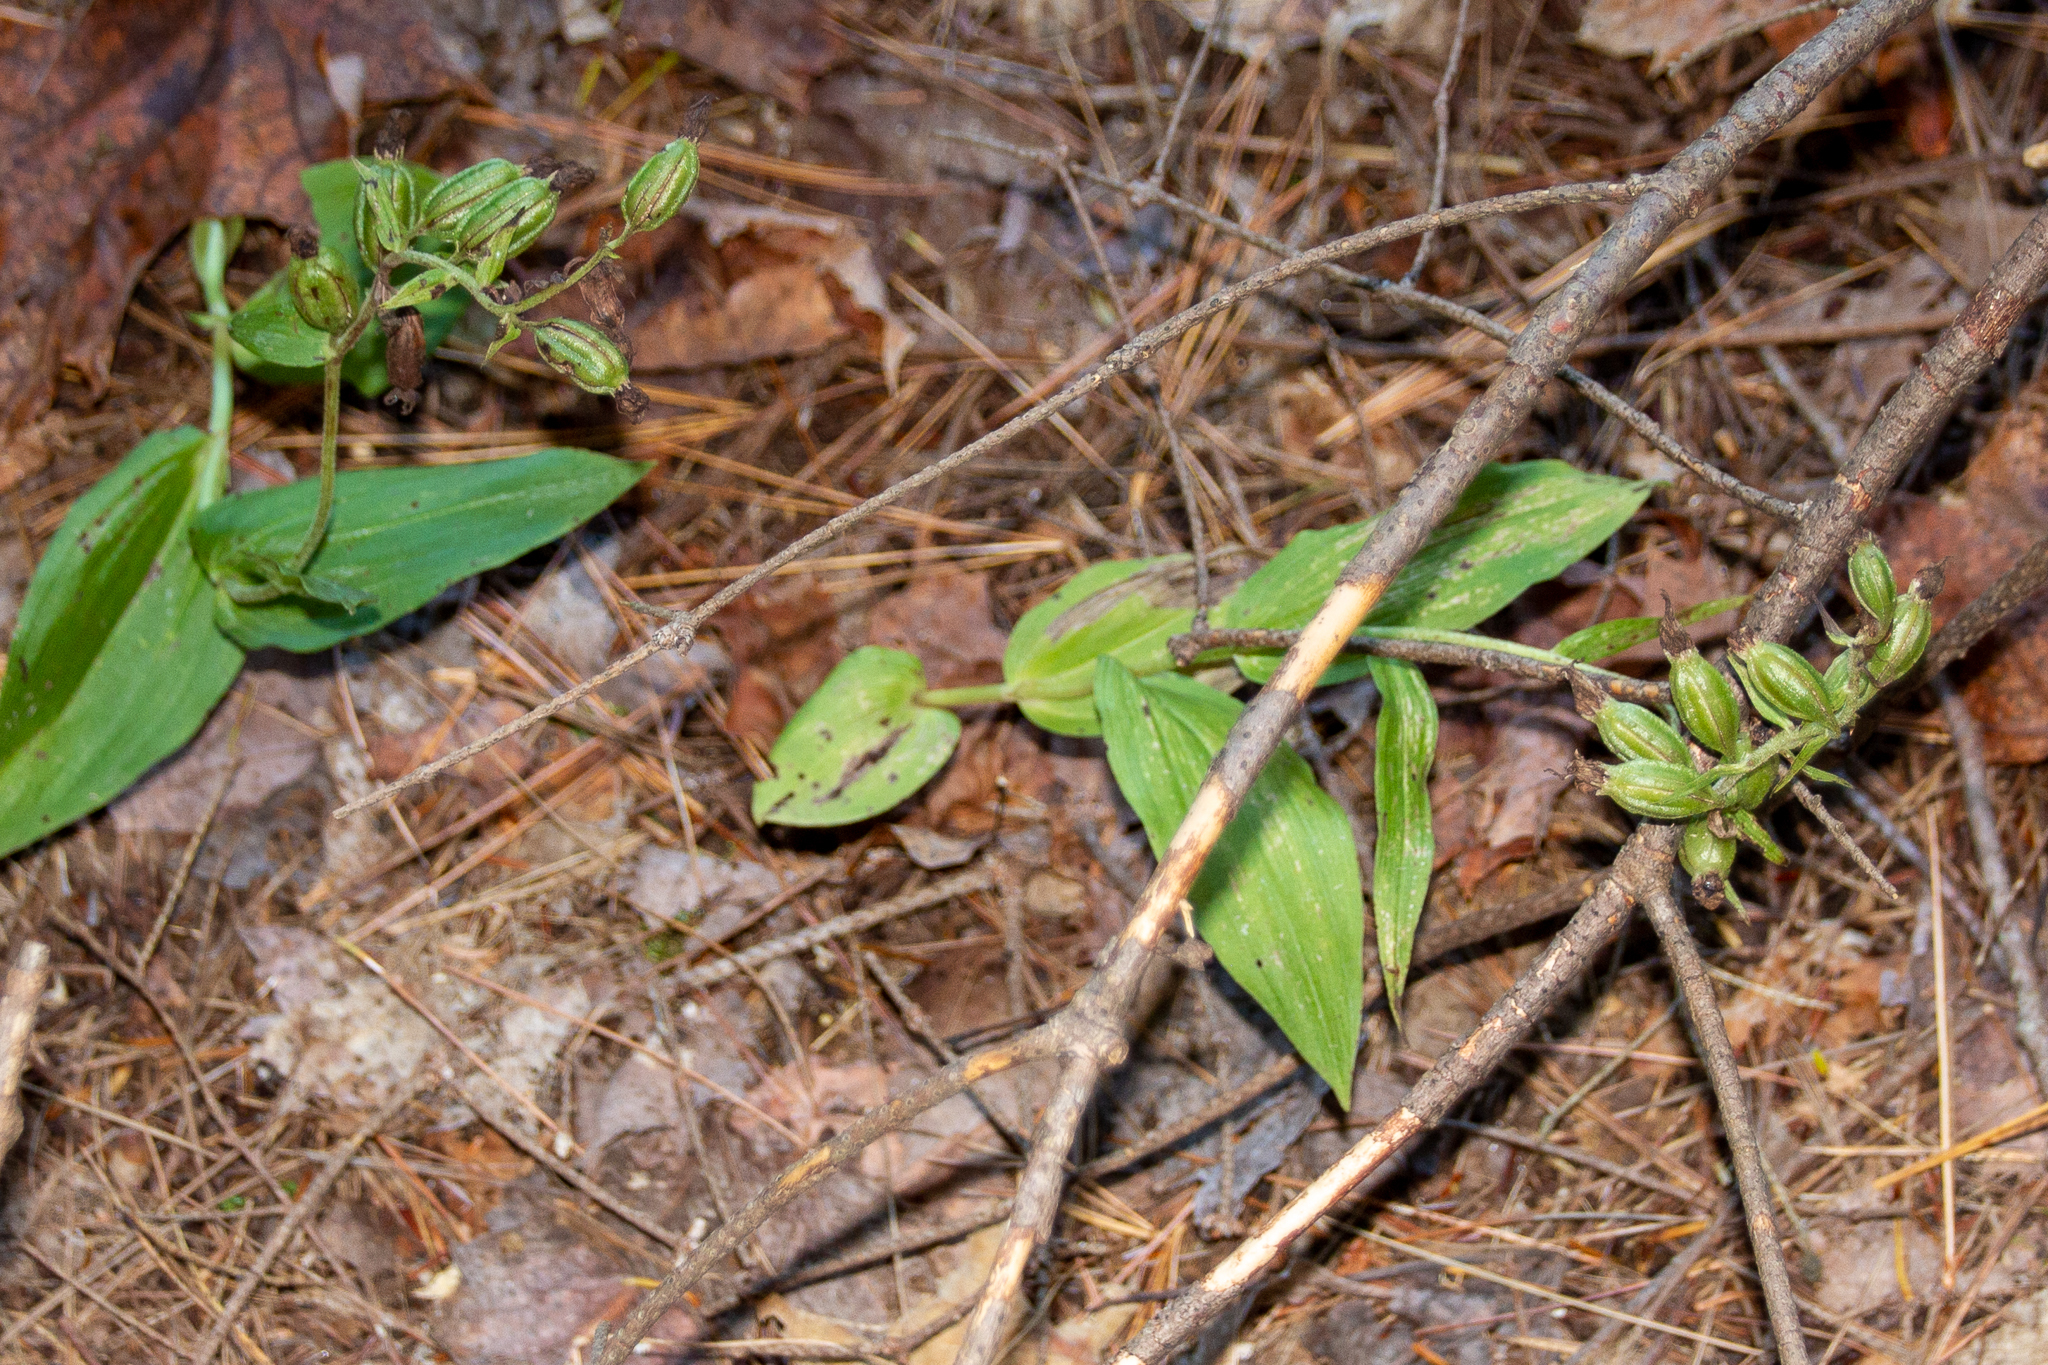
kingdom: Plantae
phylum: Tracheophyta
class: Liliopsida
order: Asparagales
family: Orchidaceae
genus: Epipactis
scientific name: Epipactis helleborine
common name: Broad-leaved helleborine
